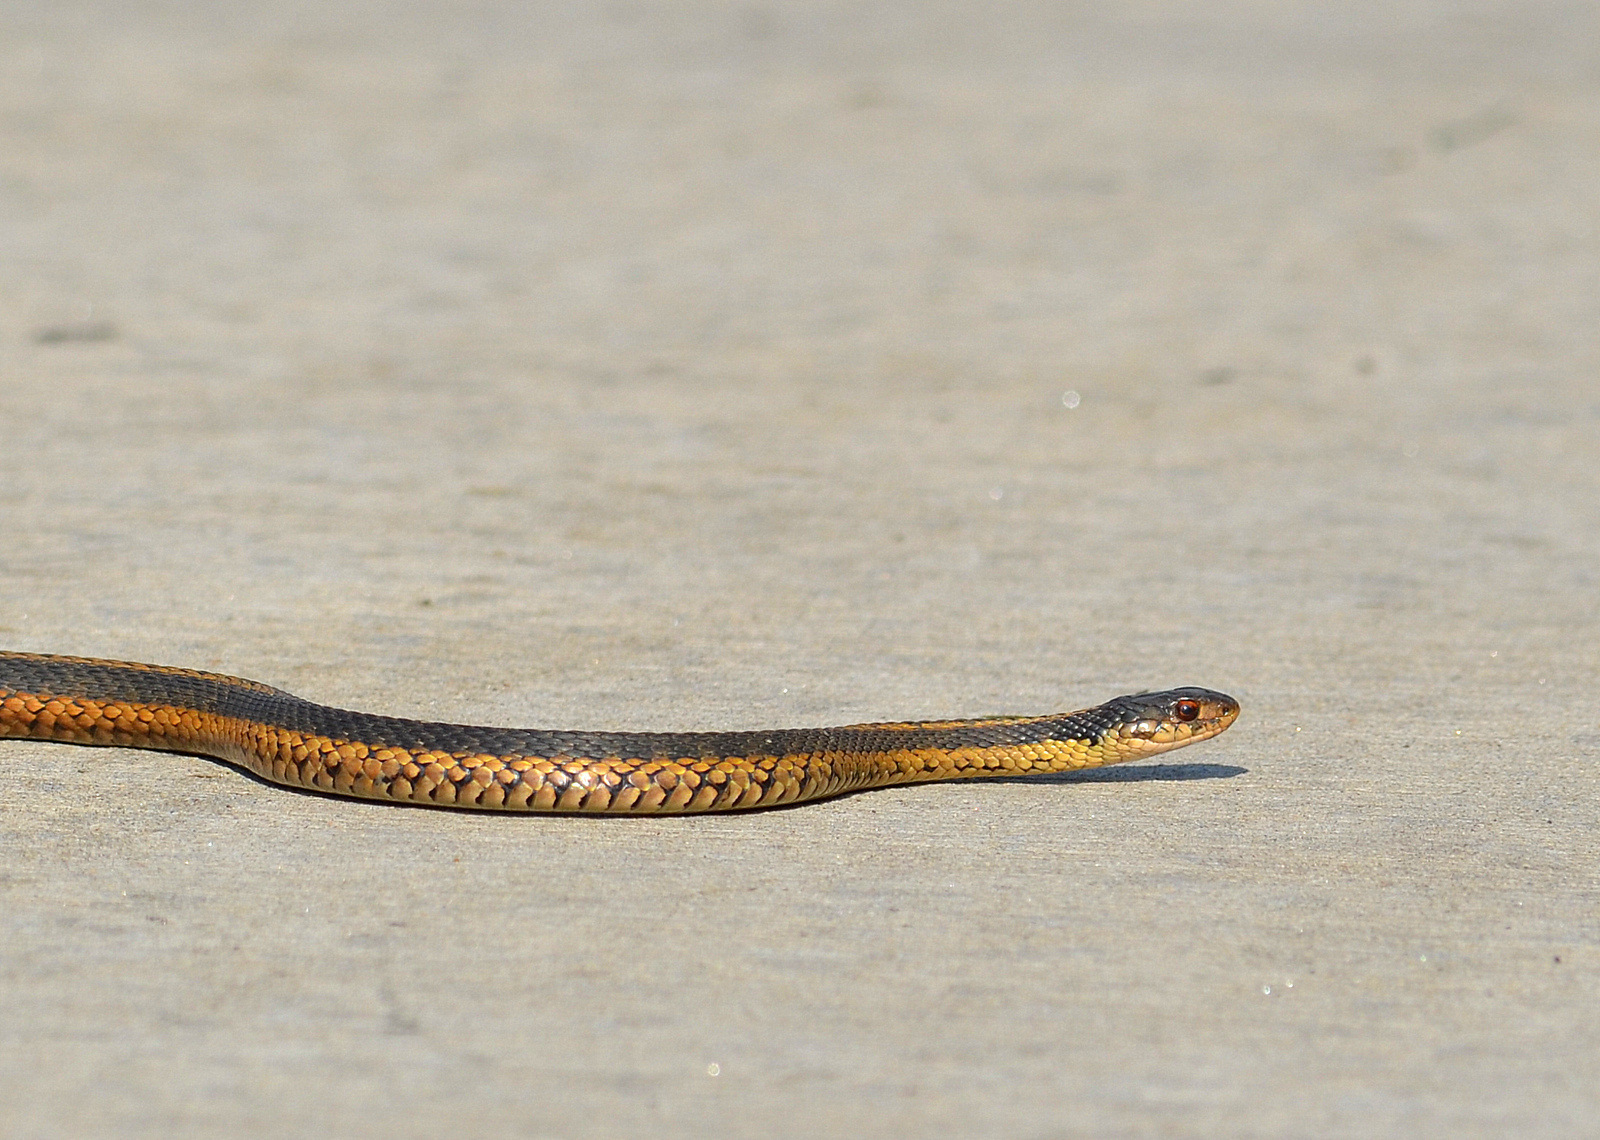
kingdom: Animalia
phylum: Chordata
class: Squamata
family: Colubridae
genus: Thamnophis
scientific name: Thamnophis sirtalis
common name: Common garter snake
